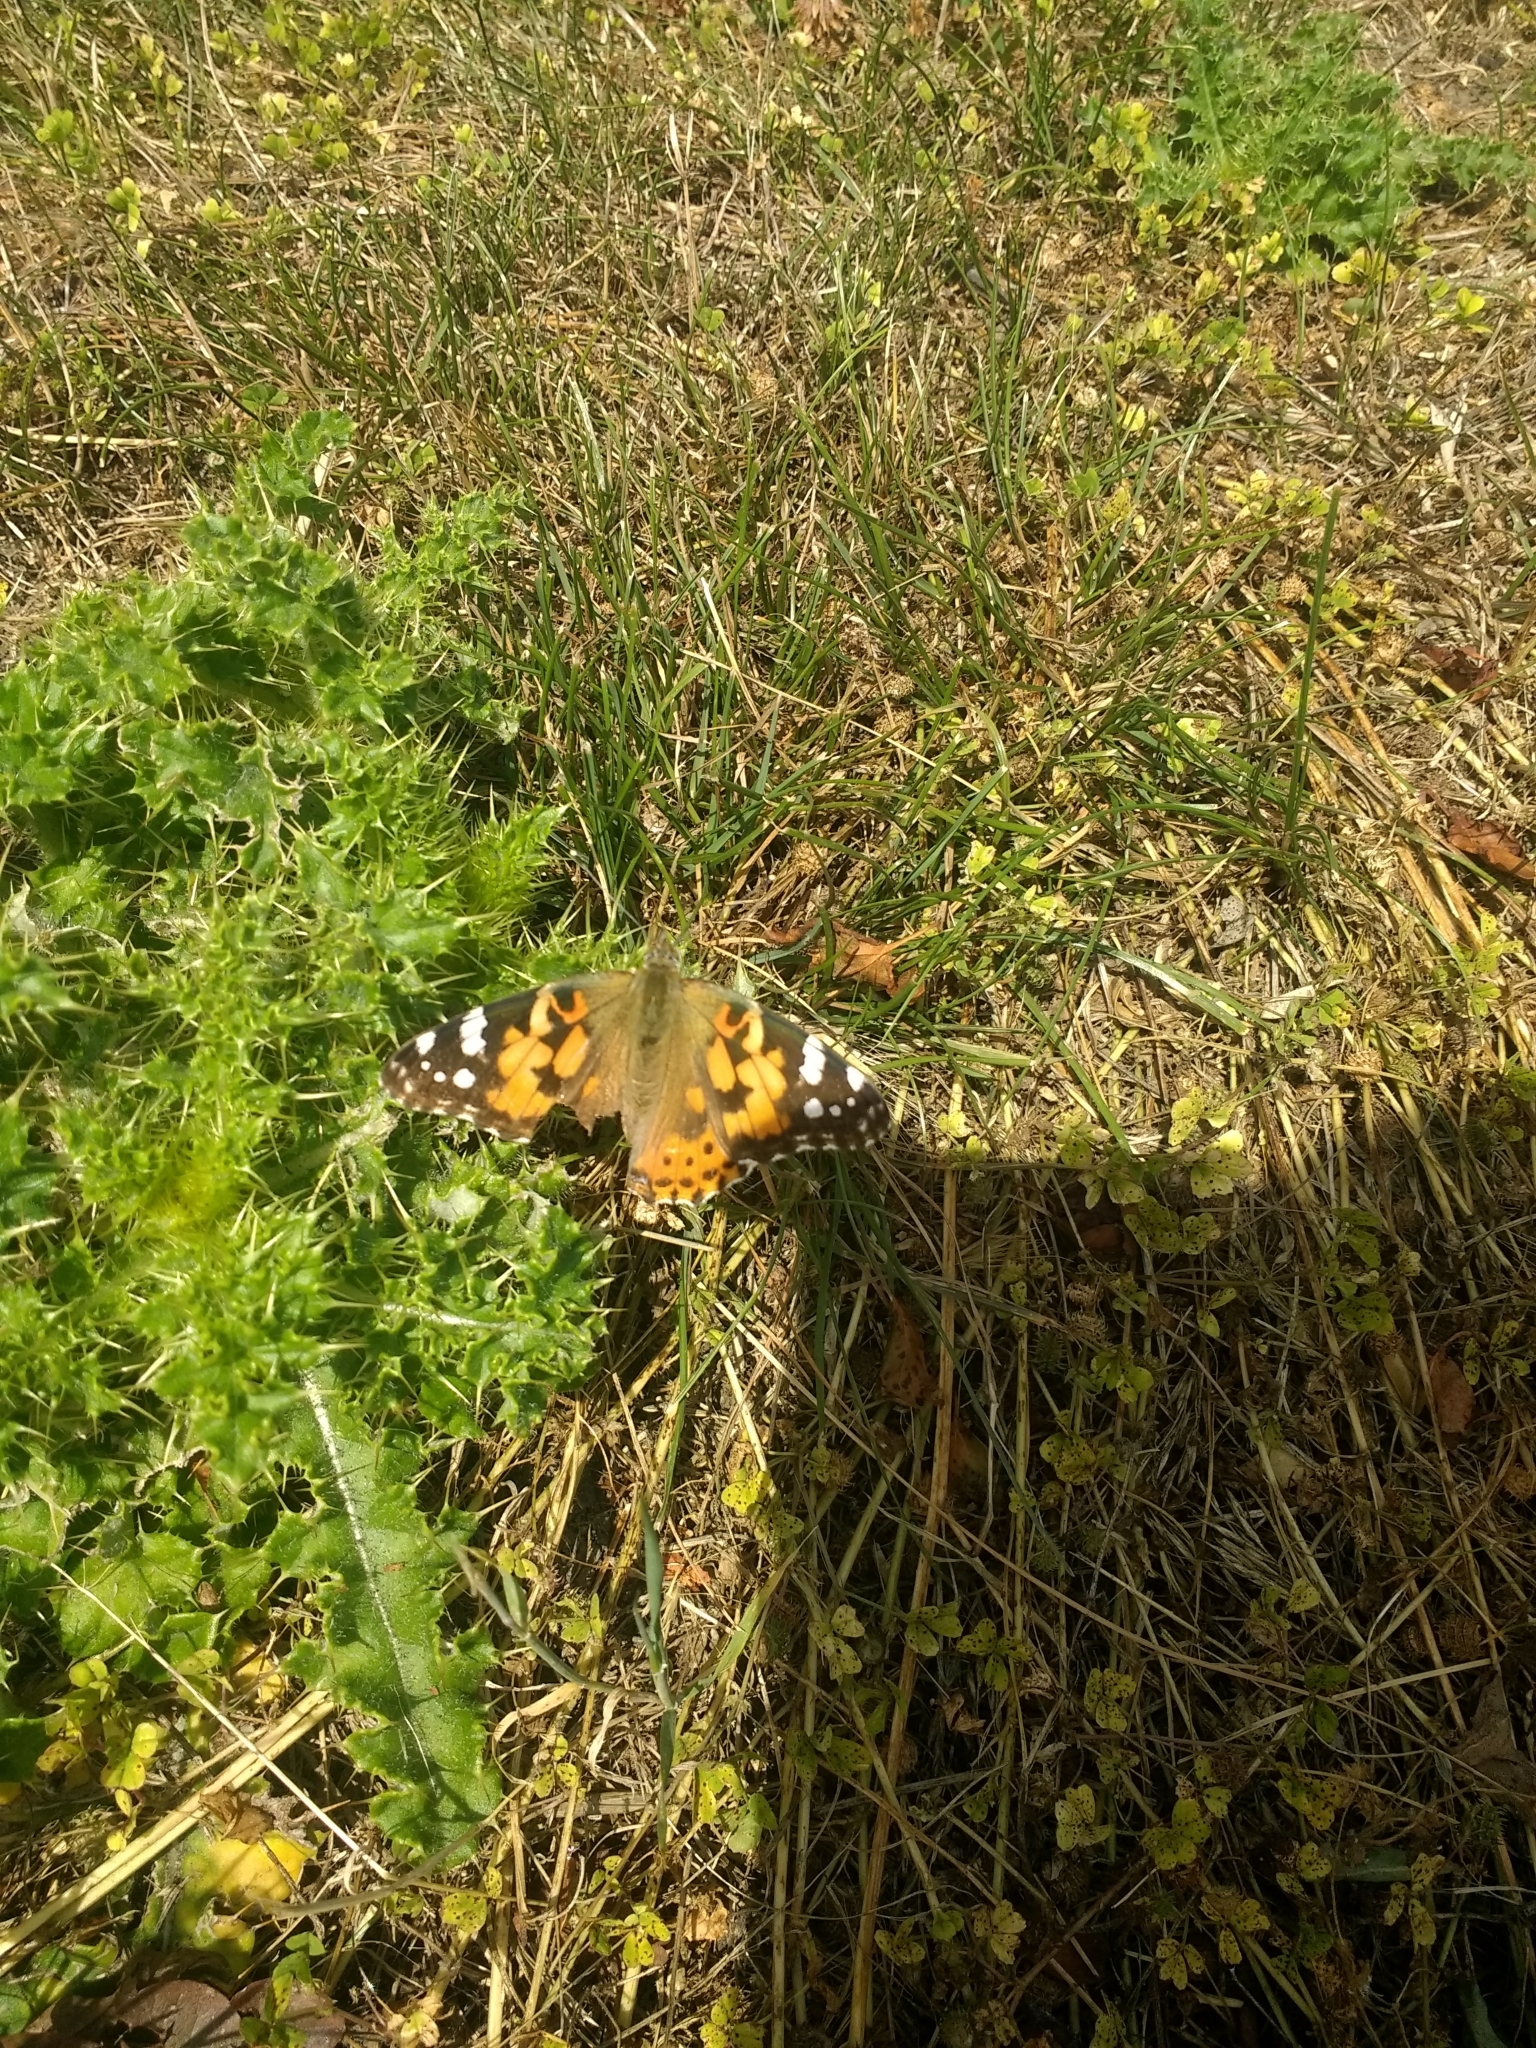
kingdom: Animalia
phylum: Arthropoda
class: Insecta
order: Lepidoptera
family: Nymphalidae
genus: Vanessa
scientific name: Vanessa cardui
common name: Painted lady
